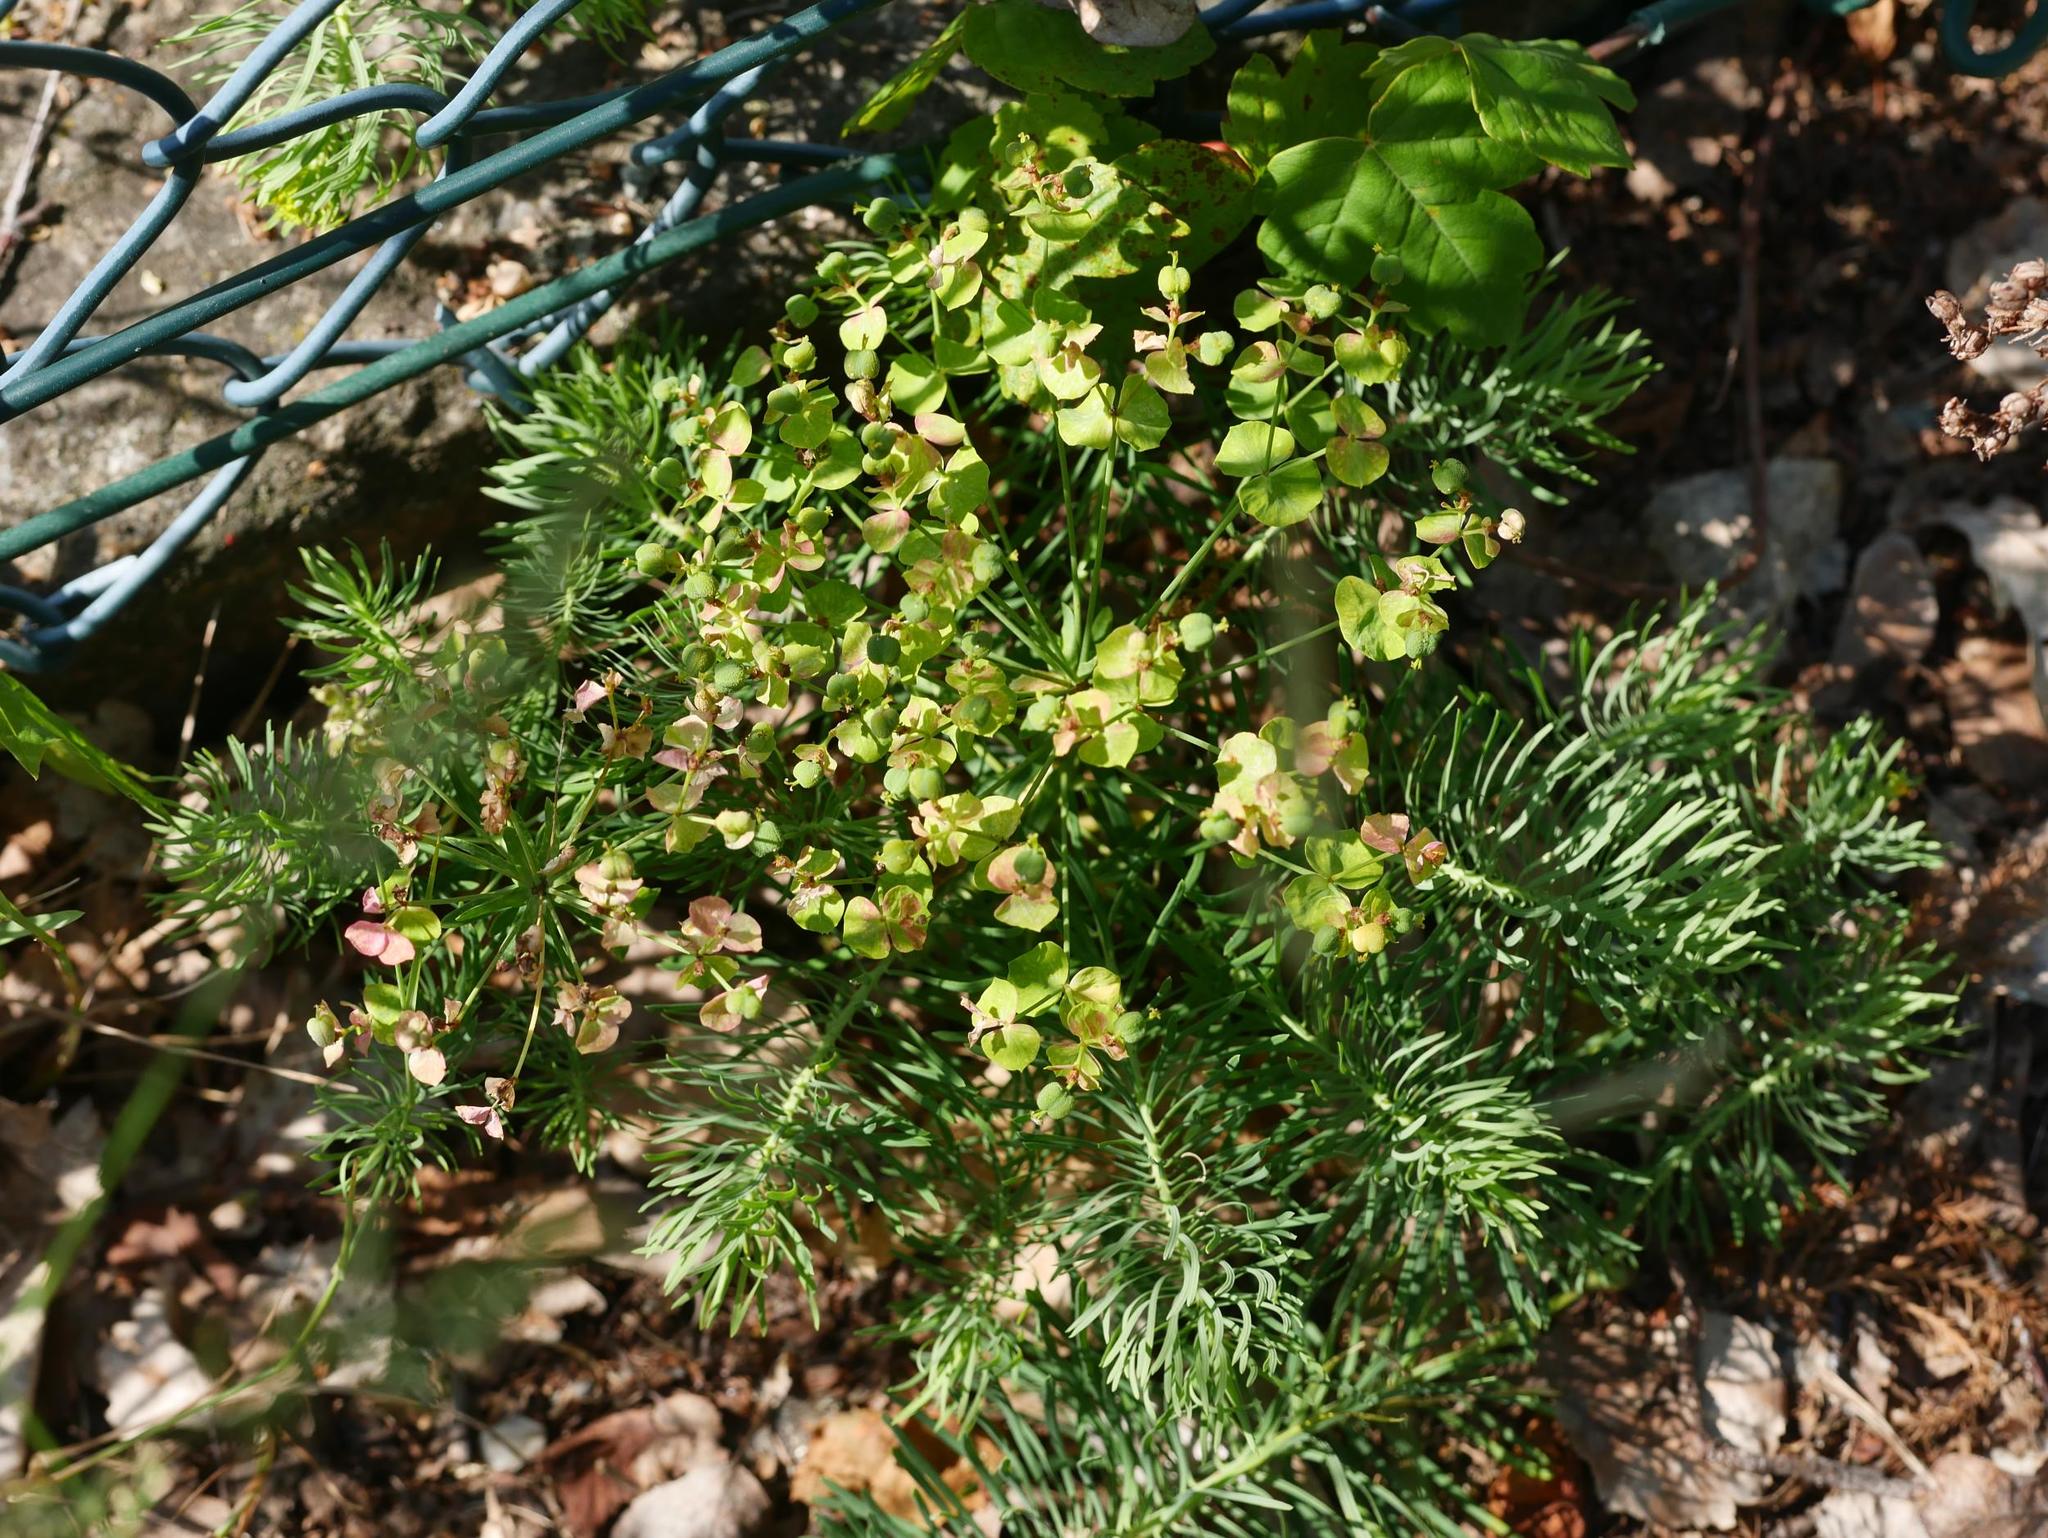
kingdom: Plantae
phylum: Tracheophyta
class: Magnoliopsida
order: Malpighiales
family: Euphorbiaceae
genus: Euphorbia
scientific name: Euphorbia cyparissias
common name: Cypress spurge
